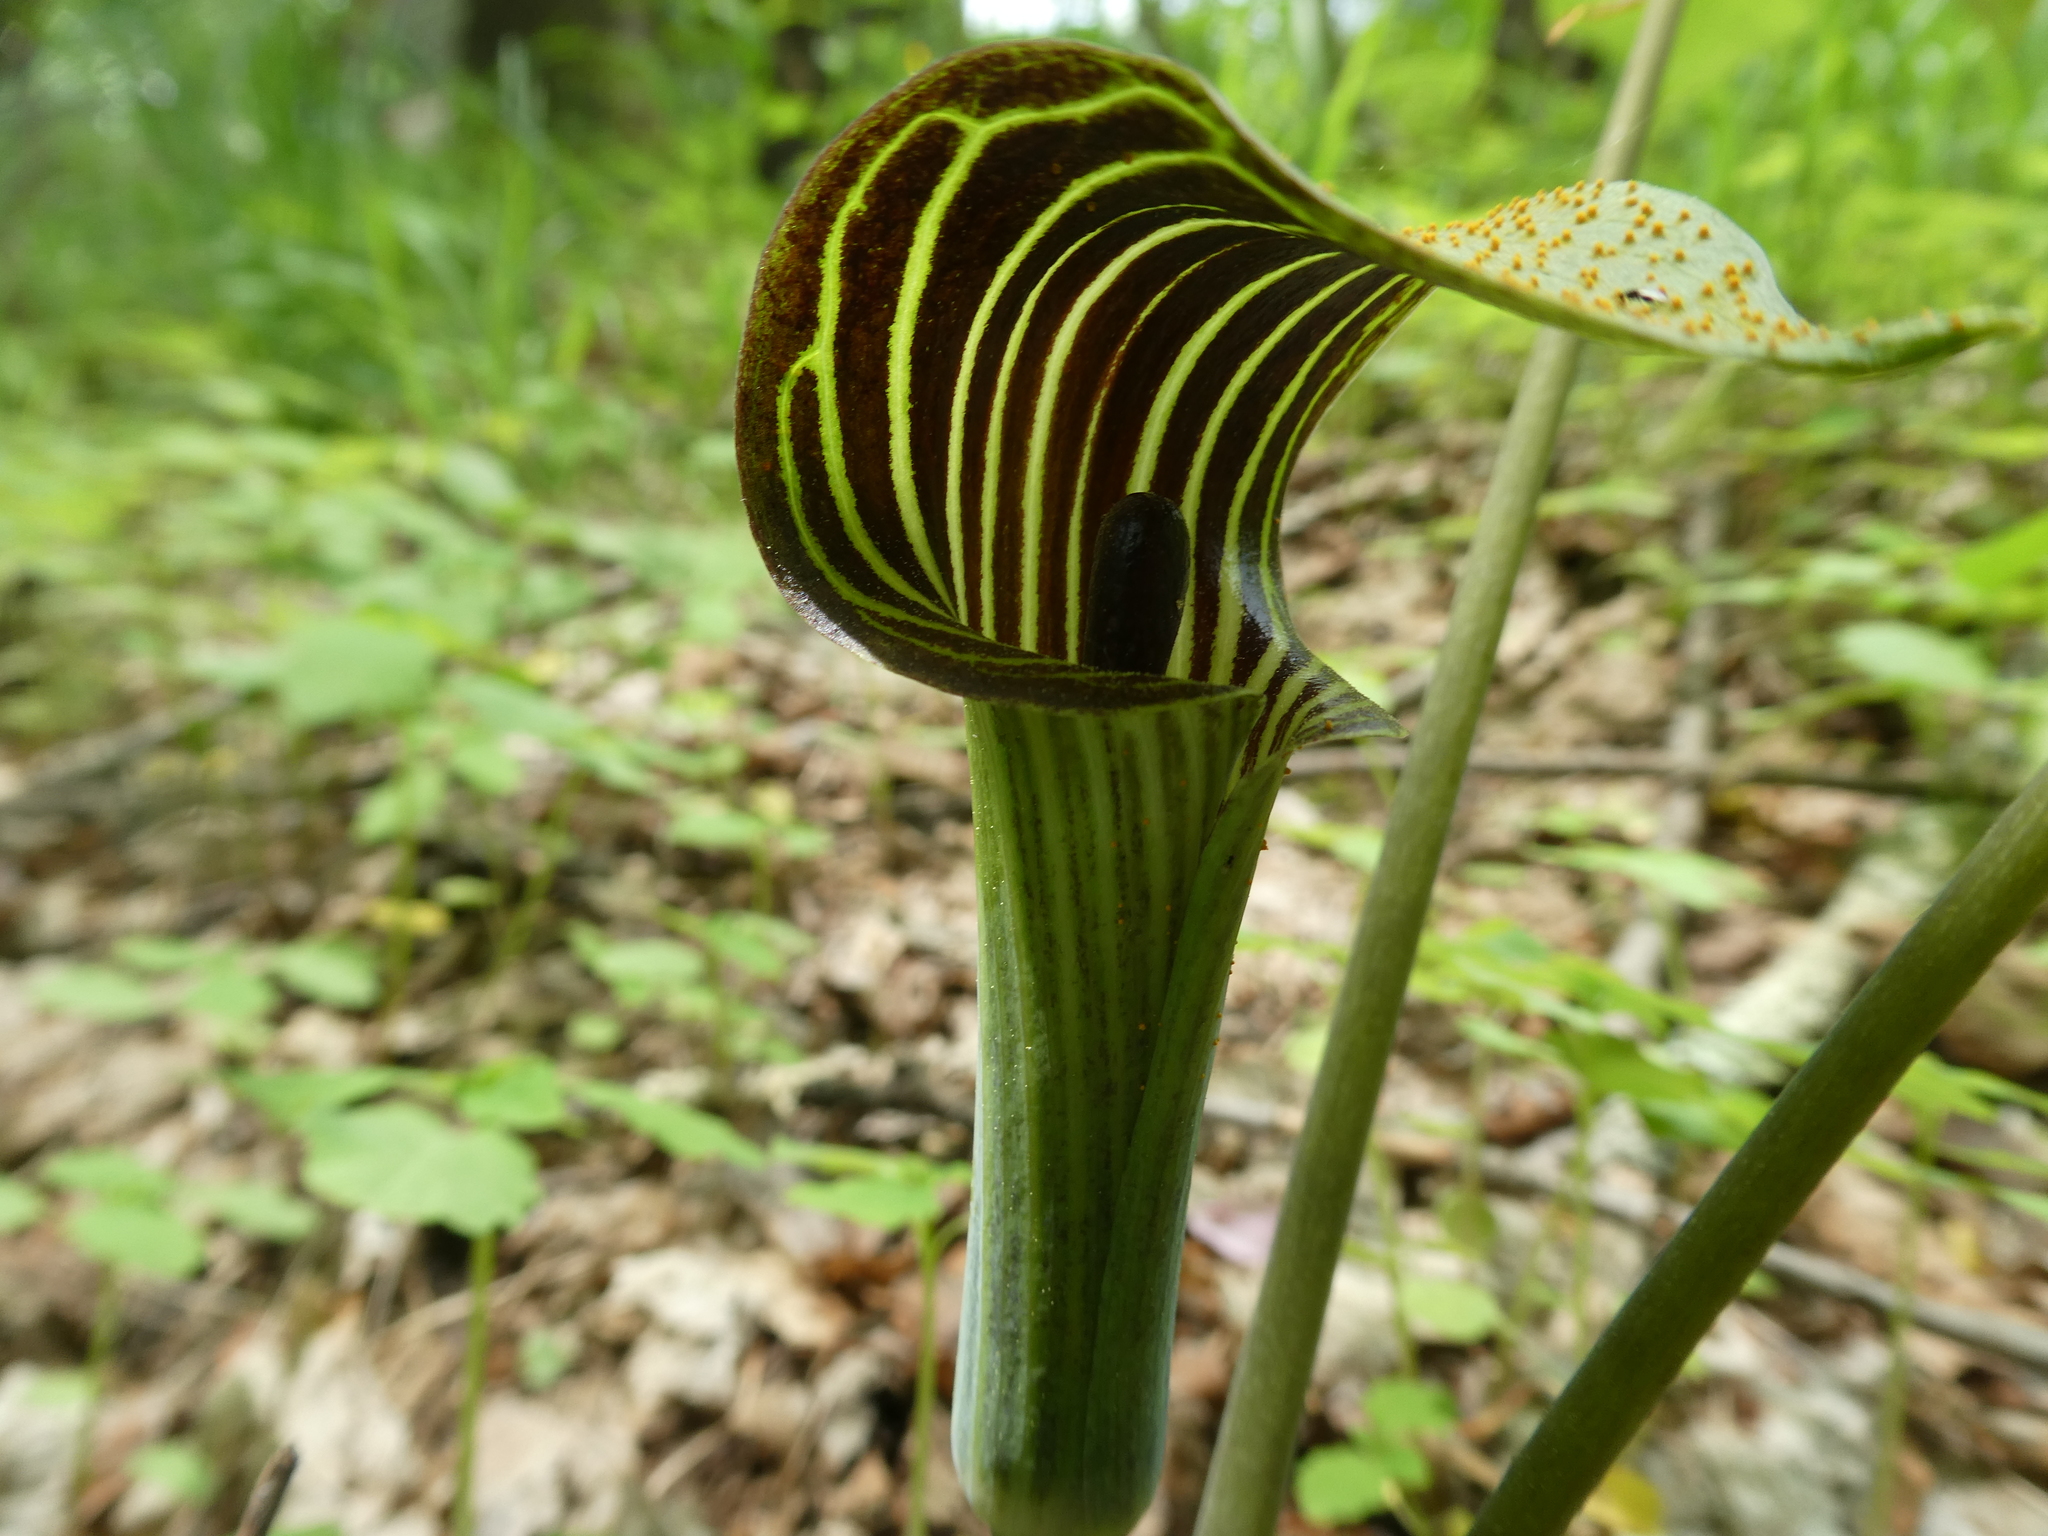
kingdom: Fungi
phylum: Basidiomycota
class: Pucciniomycetes
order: Pucciniales
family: Pucciniaceae
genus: Uromyces
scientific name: Uromyces ari-triphylli
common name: Jack-in-the-pulpit rust
